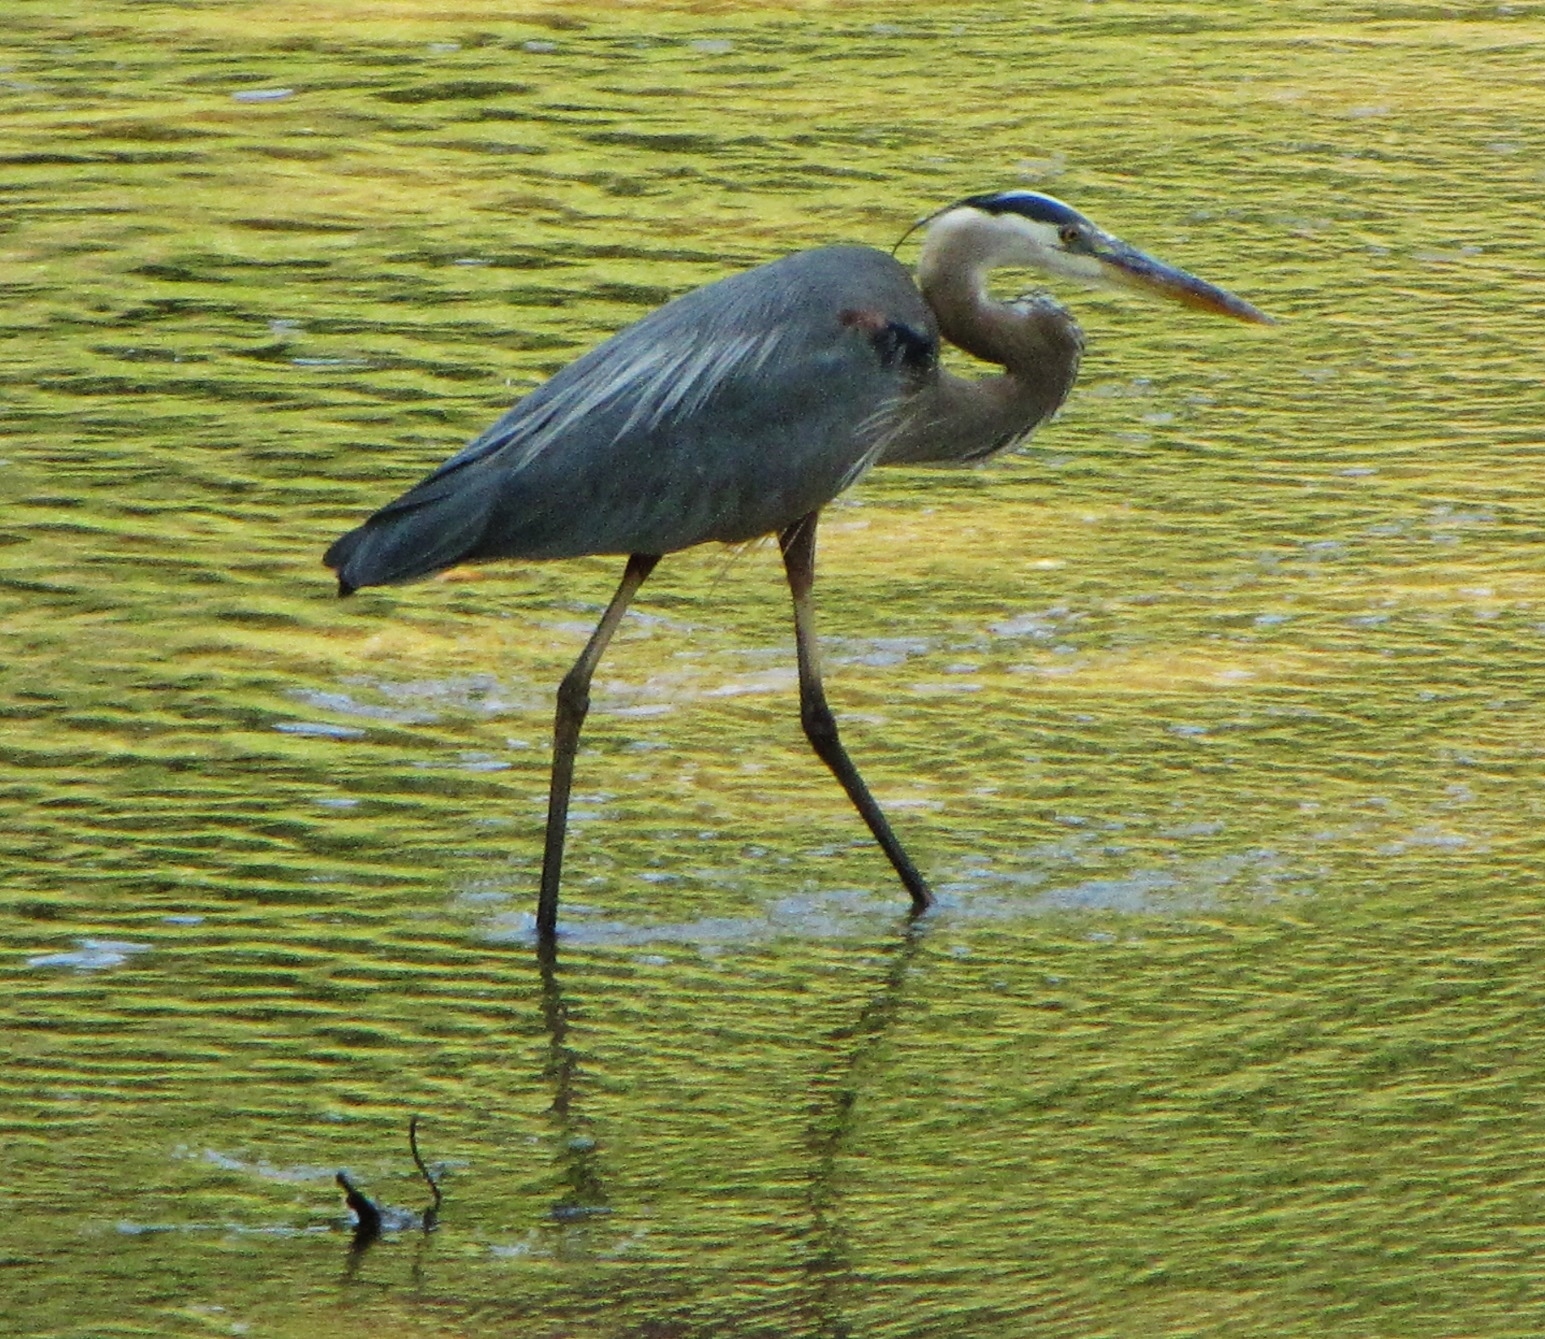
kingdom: Animalia
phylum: Chordata
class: Aves
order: Pelecaniformes
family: Ardeidae
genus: Ardea
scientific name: Ardea herodias
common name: Great blue heron
